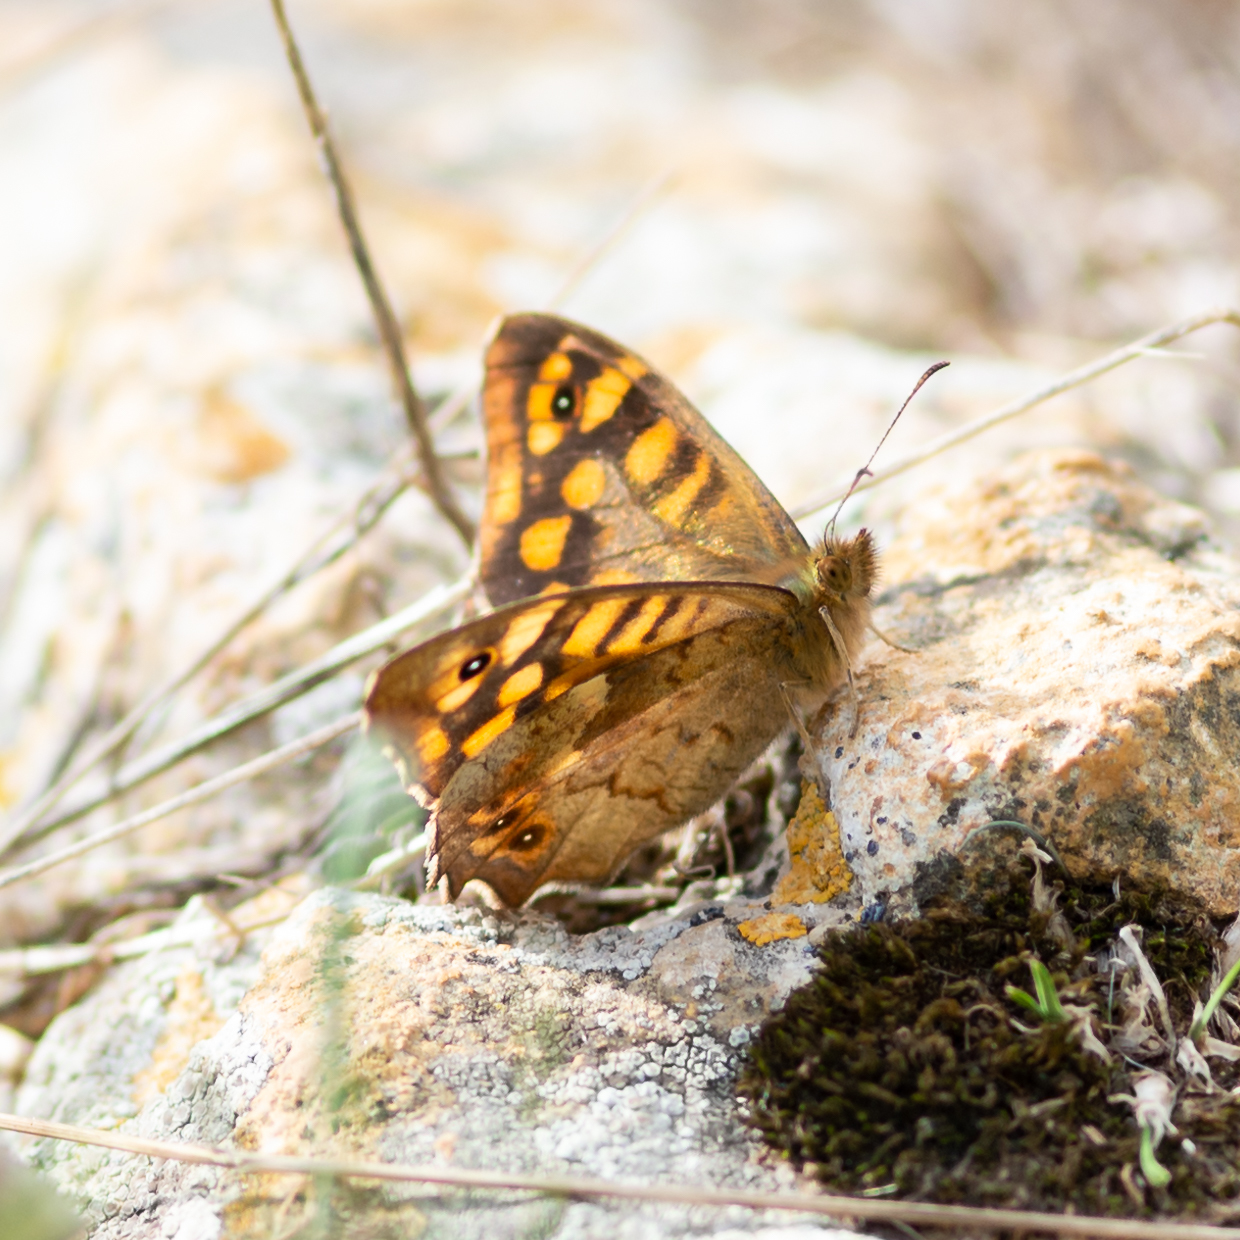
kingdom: Animalia
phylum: Arthropoda
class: Insecta
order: Lepidoptera
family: Nymphalidae
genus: Pararge
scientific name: Pararge aegeria
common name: Speckled wood
